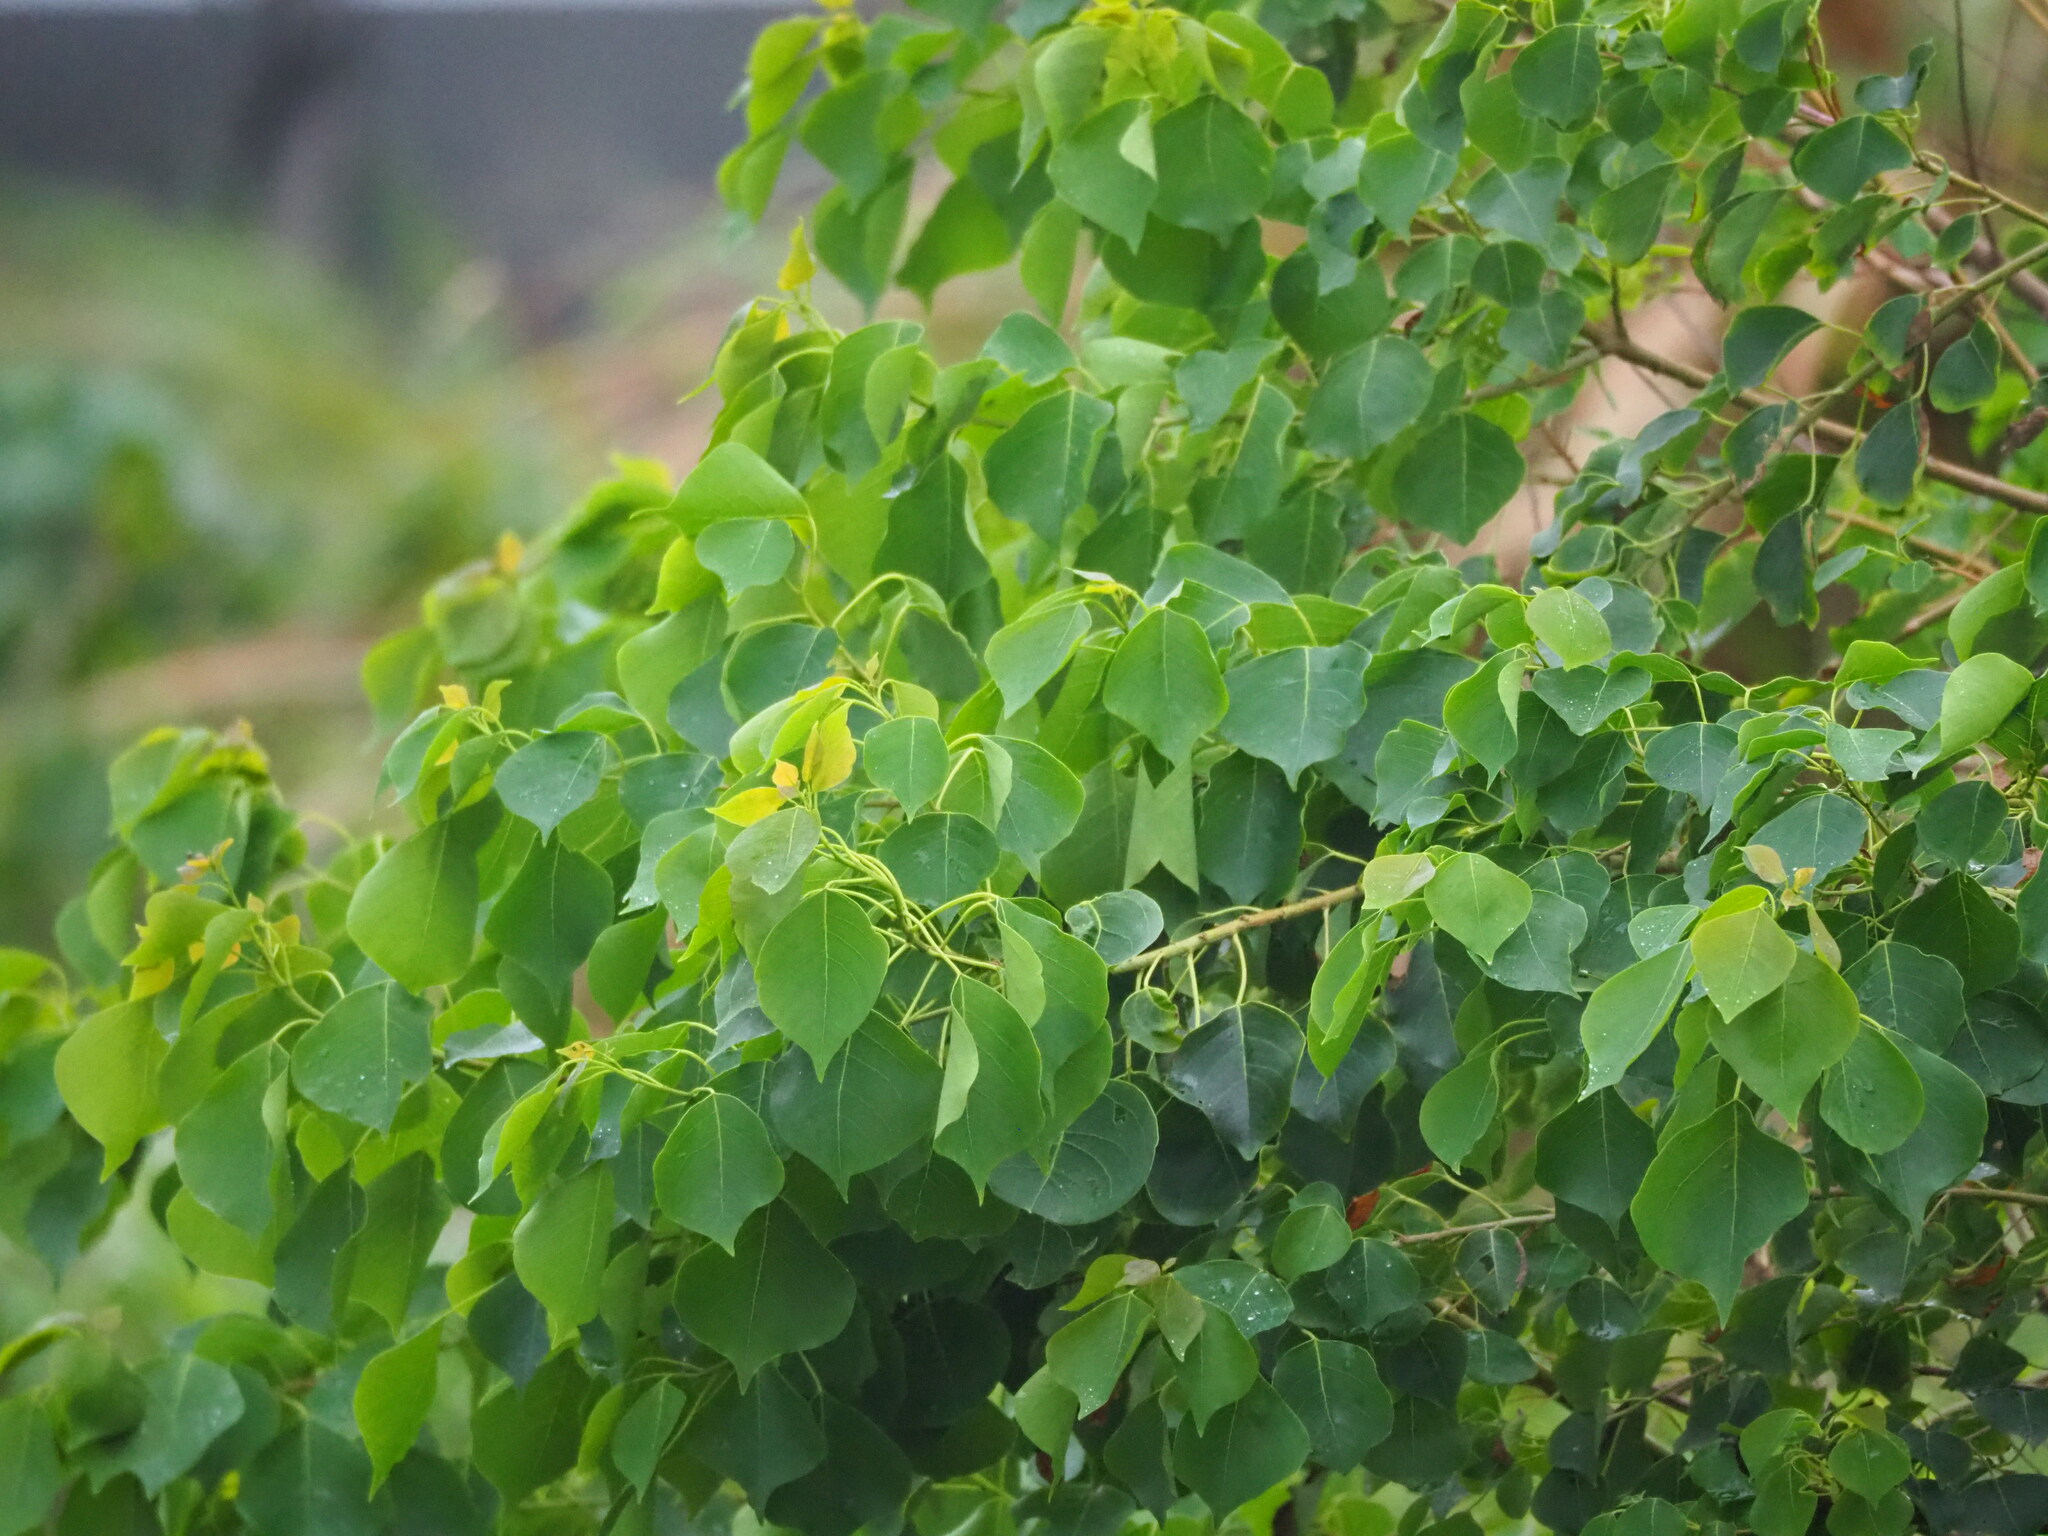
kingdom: Plantae
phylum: Tracheophyta
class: Magnoliopsida
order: Malpighiales
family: Euphorbiaceae
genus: Triadica
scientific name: Triadica sebifera
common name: Chinese tallow
